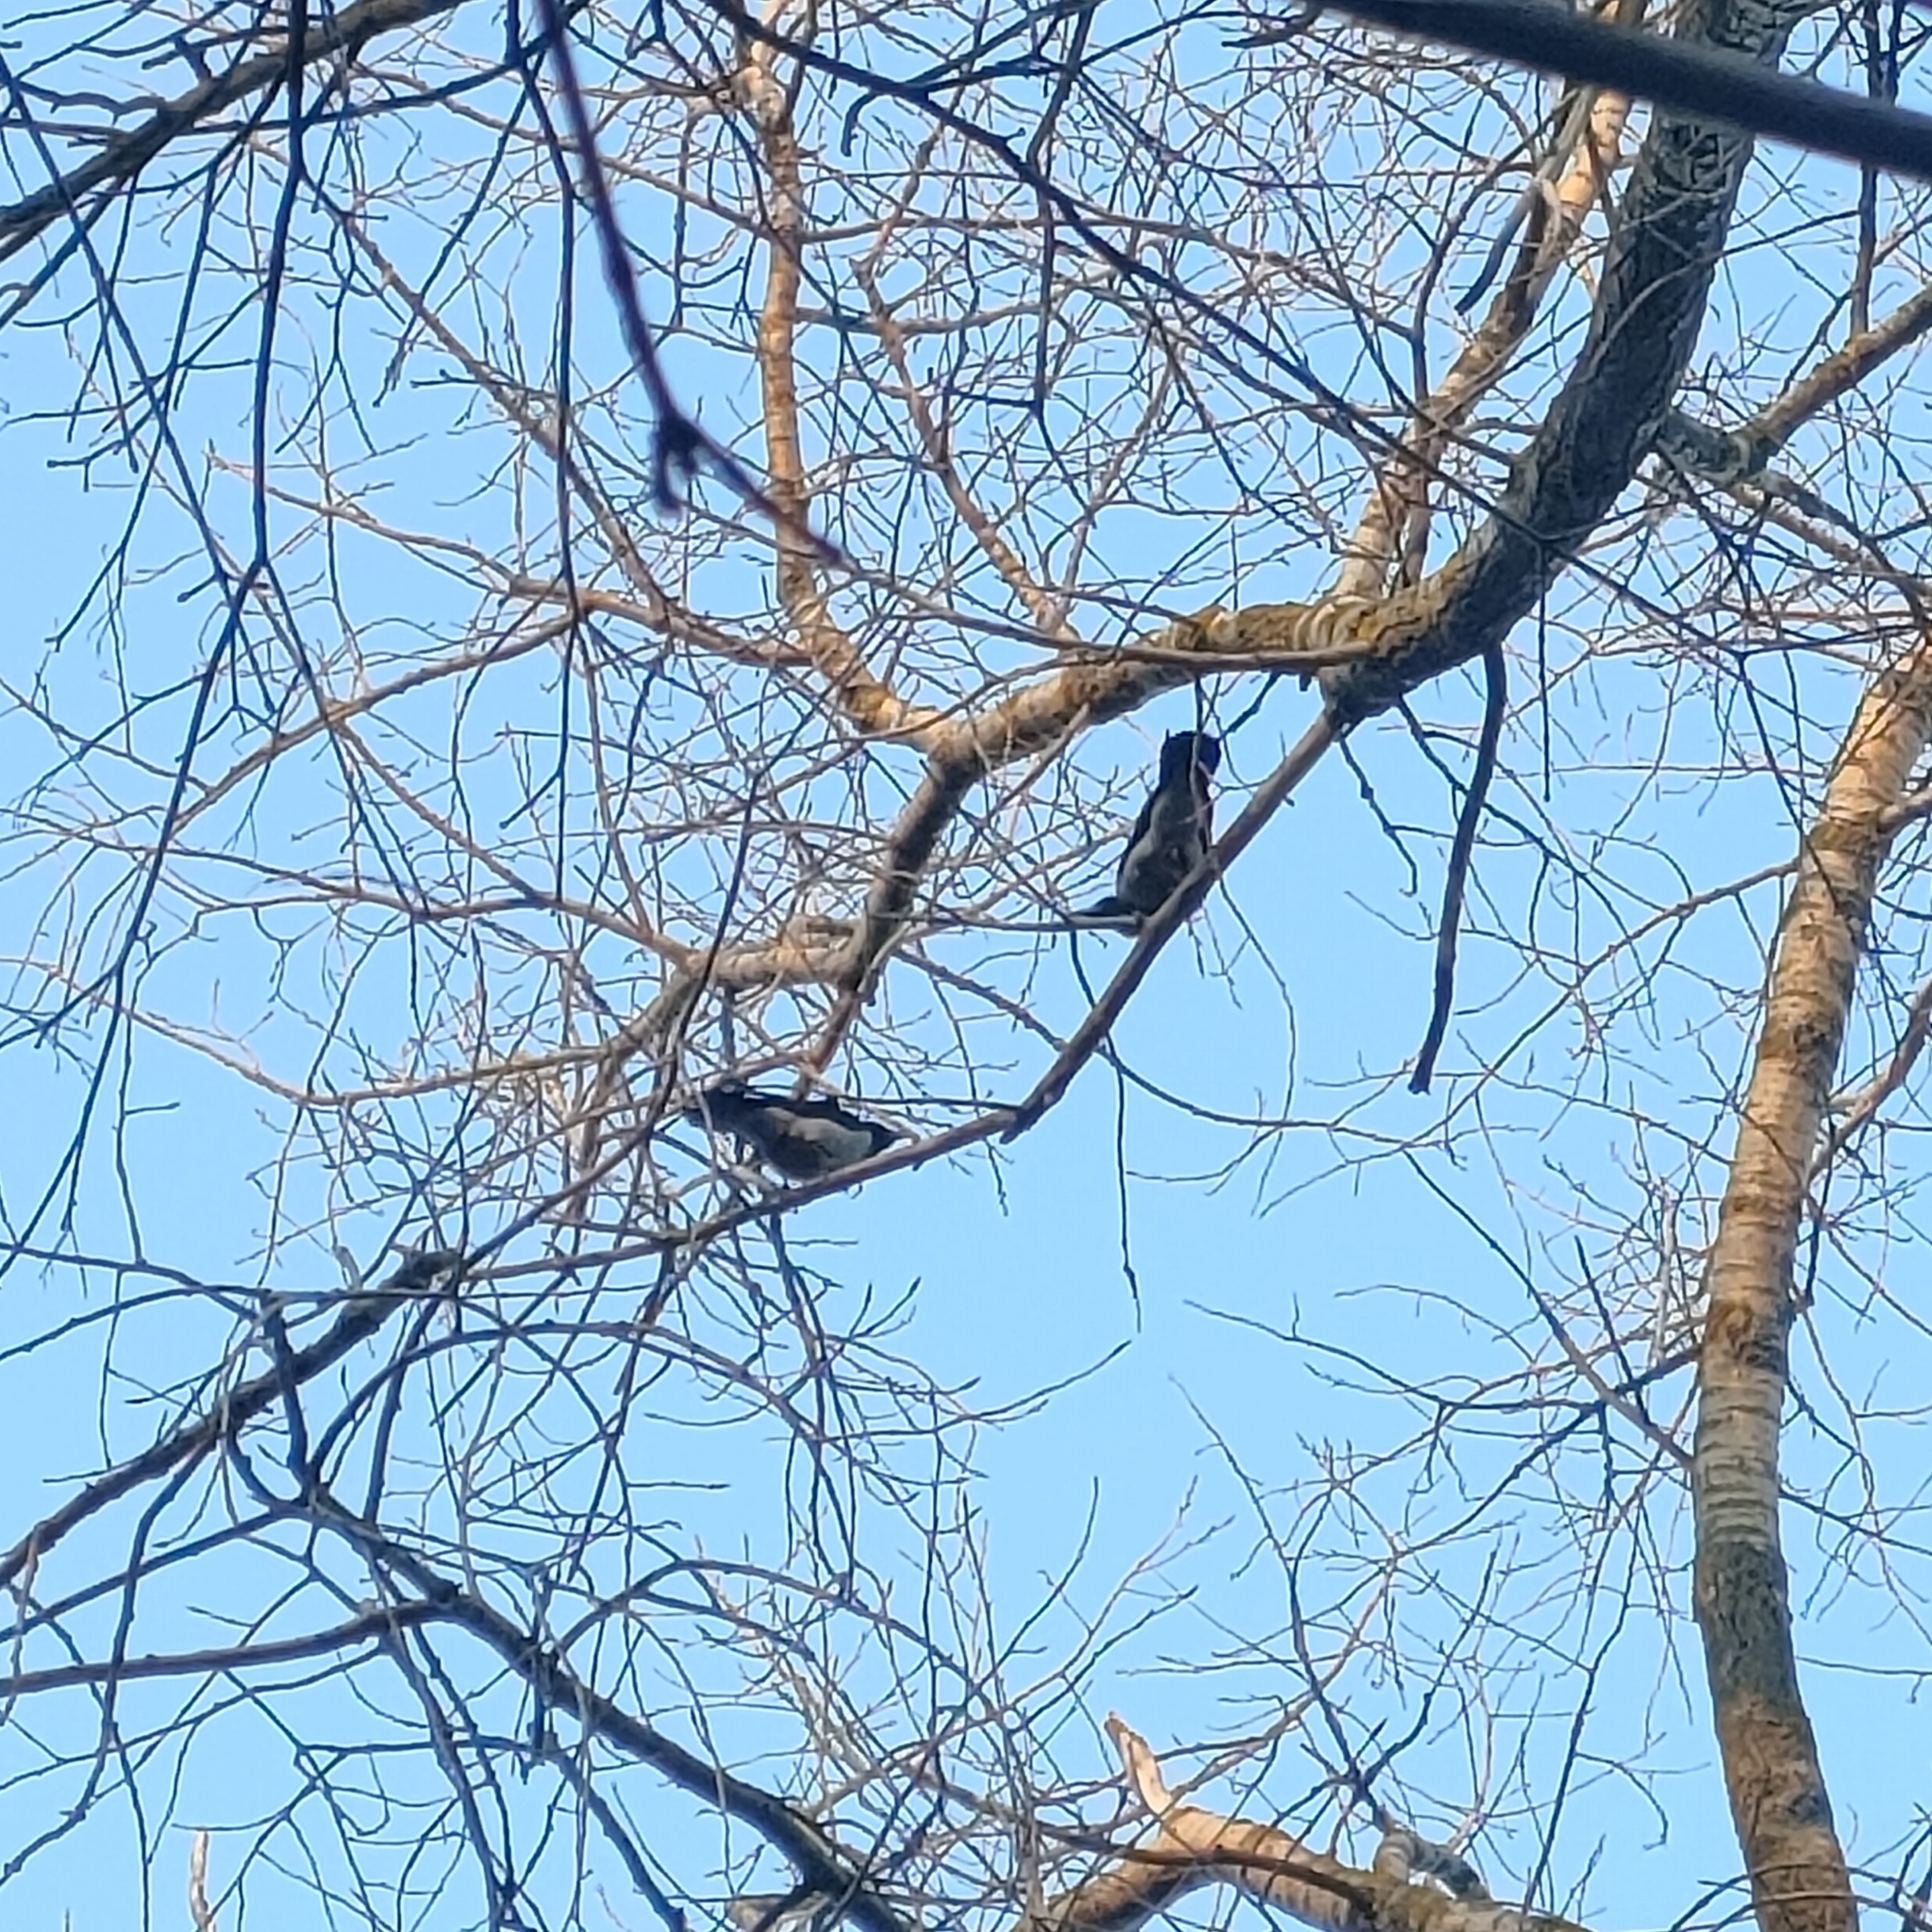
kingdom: Animalia
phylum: Chordata
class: Aves
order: Passeriformes
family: Corvidae
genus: Corvus
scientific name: Corvus cornix
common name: Hooded crow
